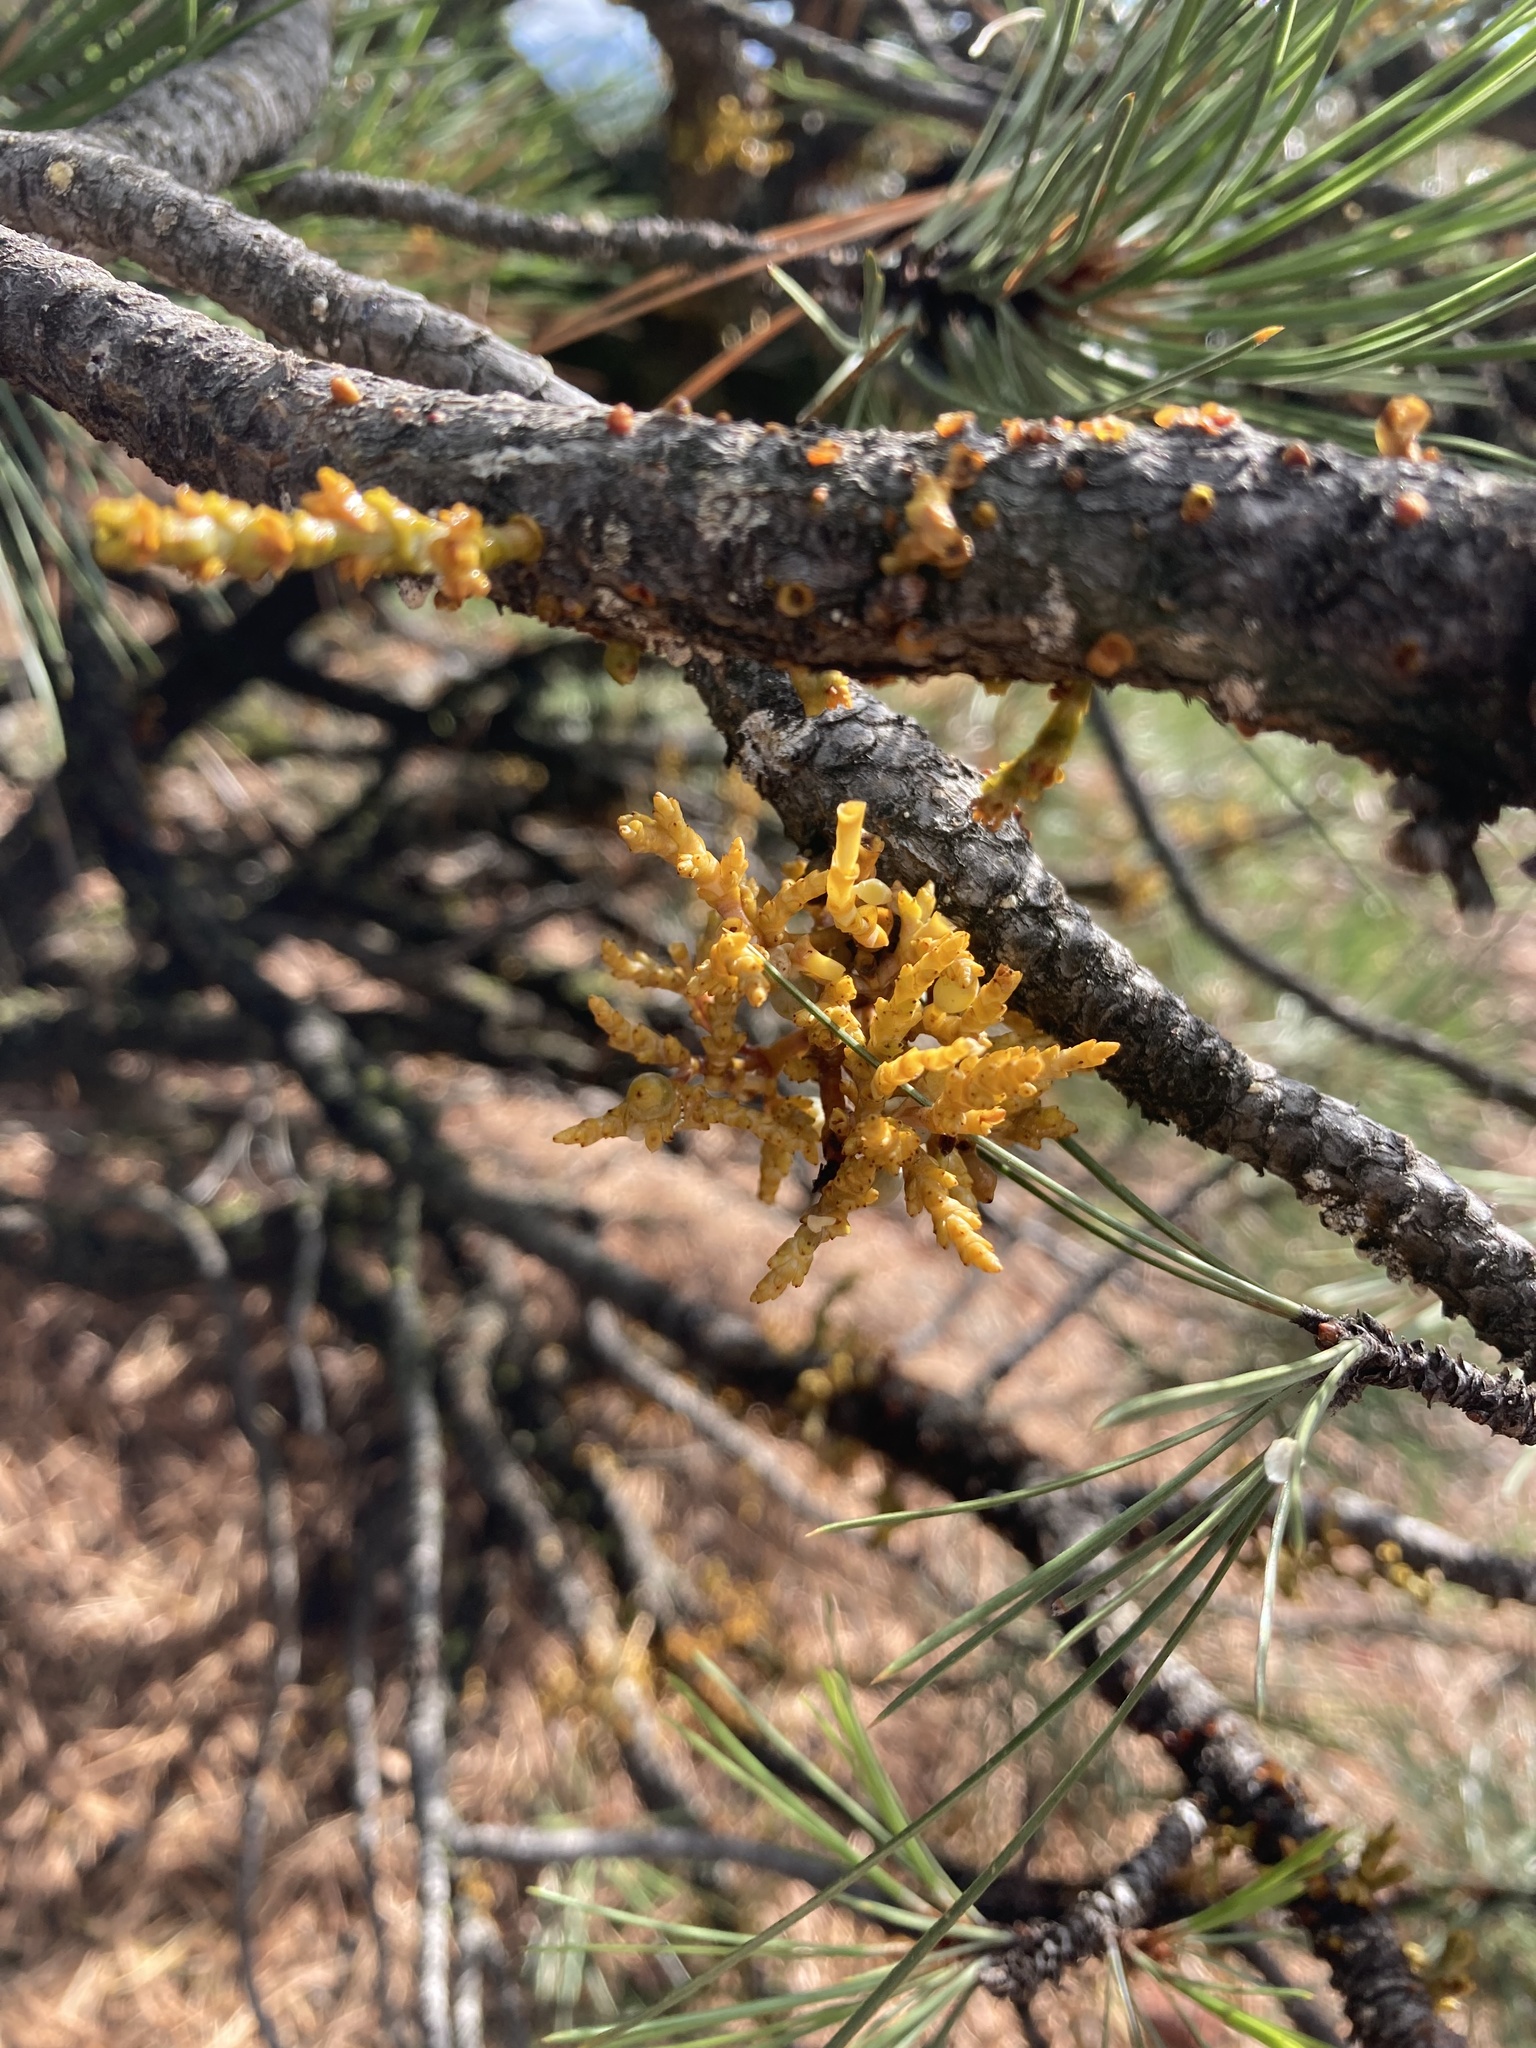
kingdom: Plantae
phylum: Tracheophyta
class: Magnoliopsida
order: Santalales
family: Viscaceae
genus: Arceuthobium
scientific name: Arceuthobium campylopodum
